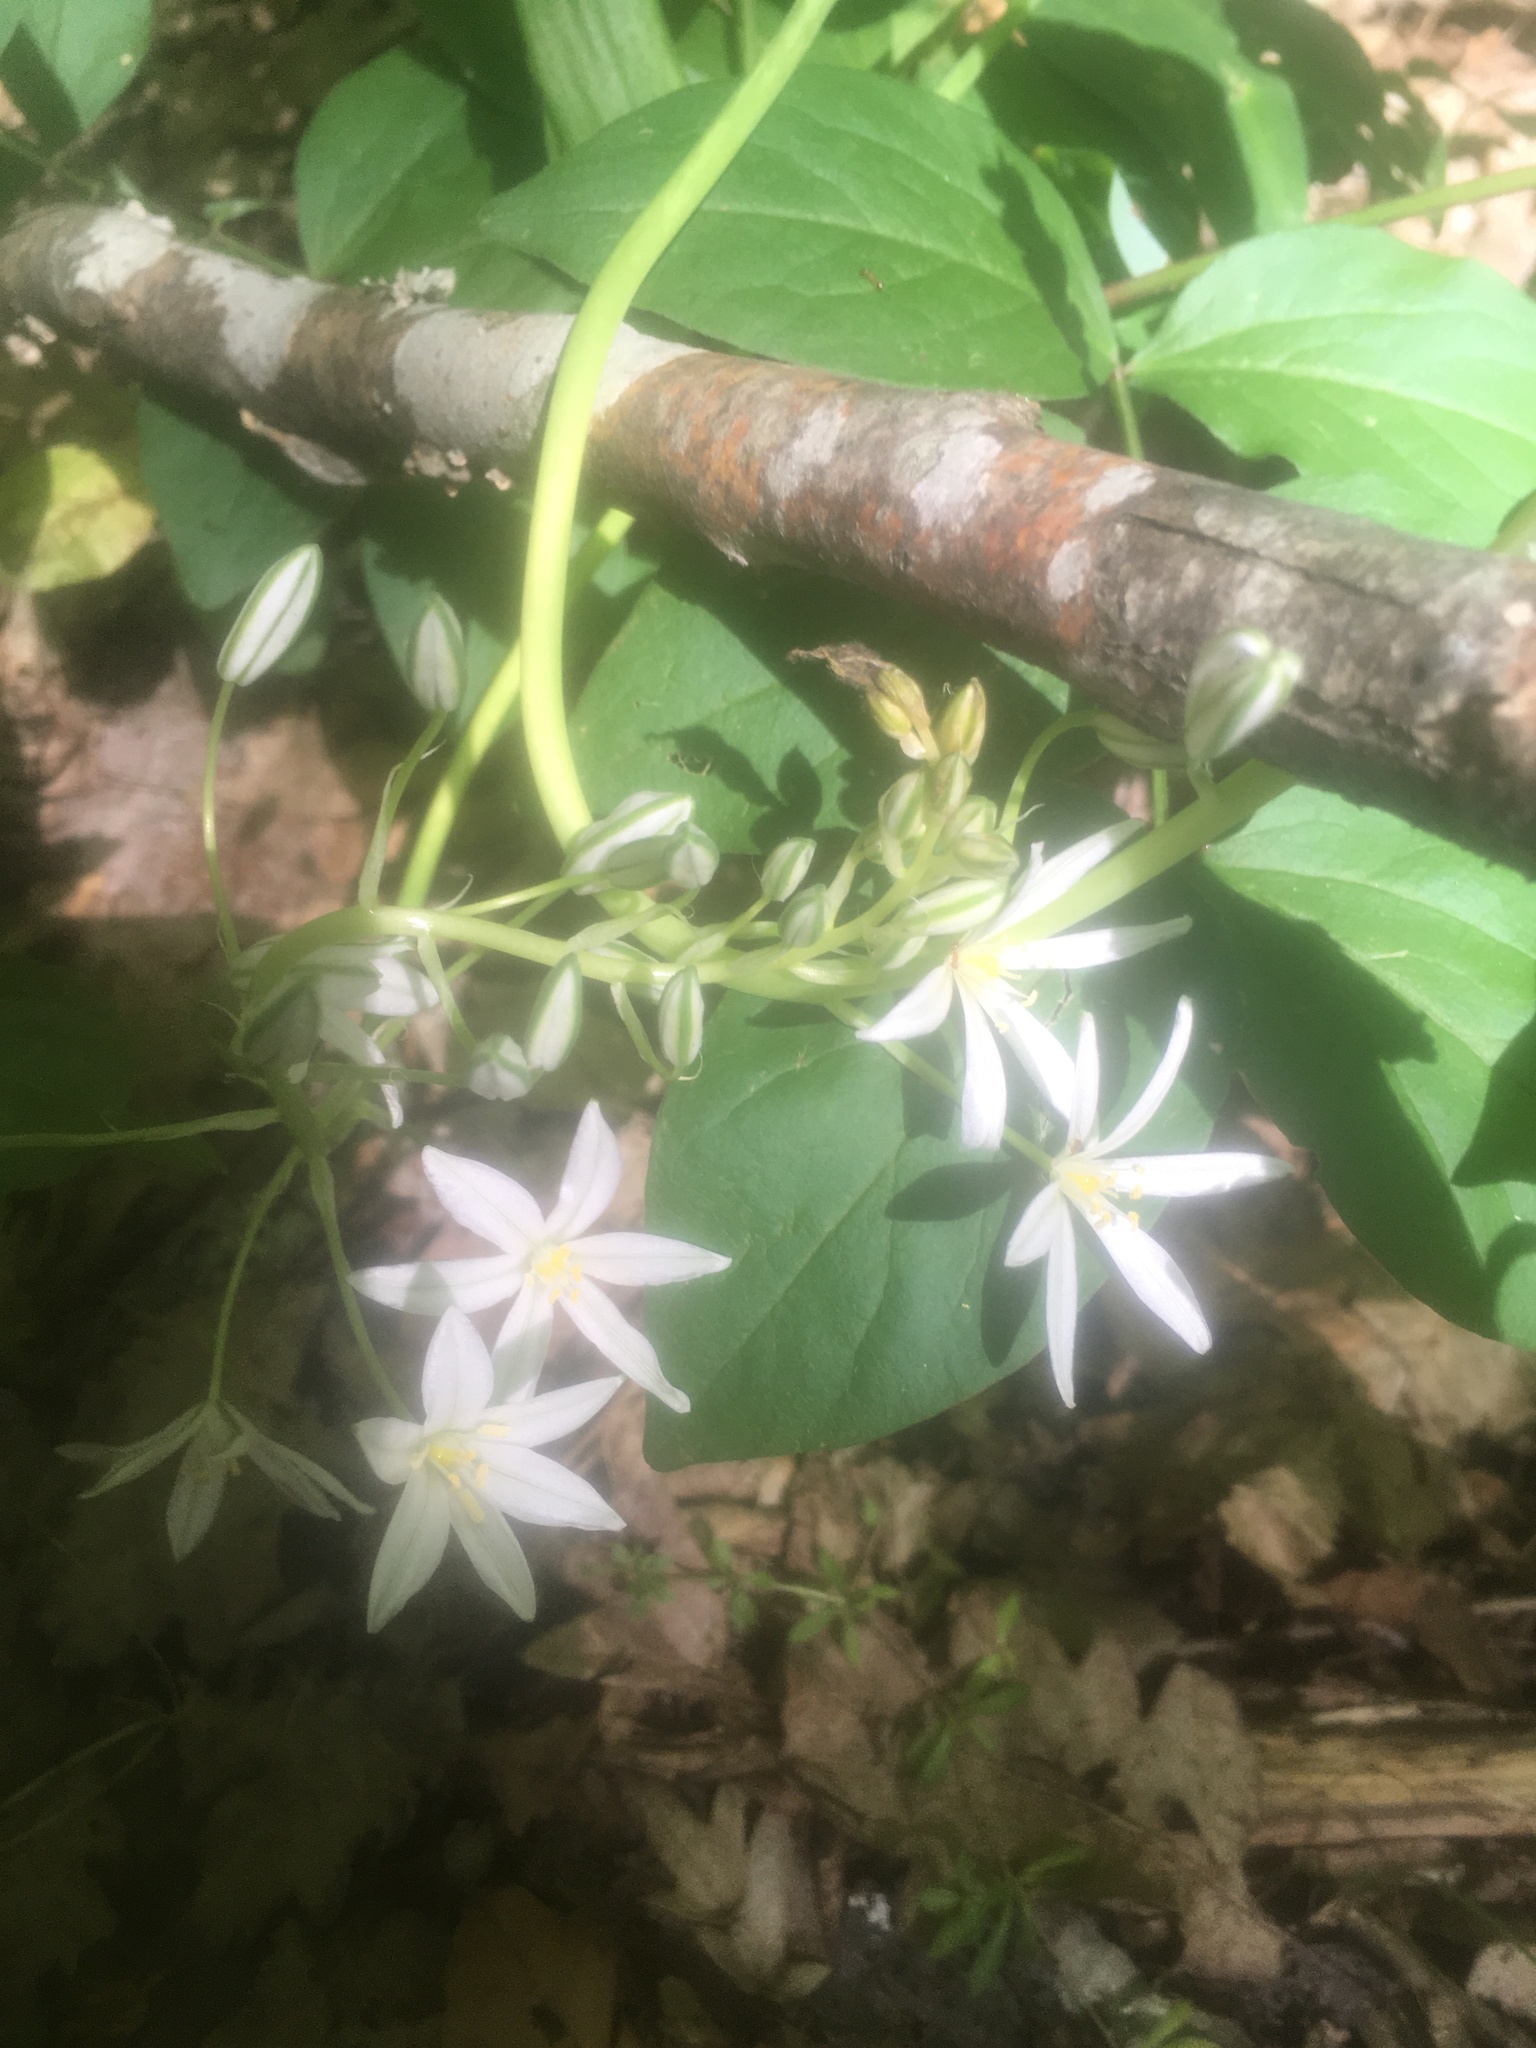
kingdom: Plantae
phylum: Tracheophyta
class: Liliopsida
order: Asparagales
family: Asparagaceae
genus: Ornithogalum
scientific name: Ornithogalum ponticum
